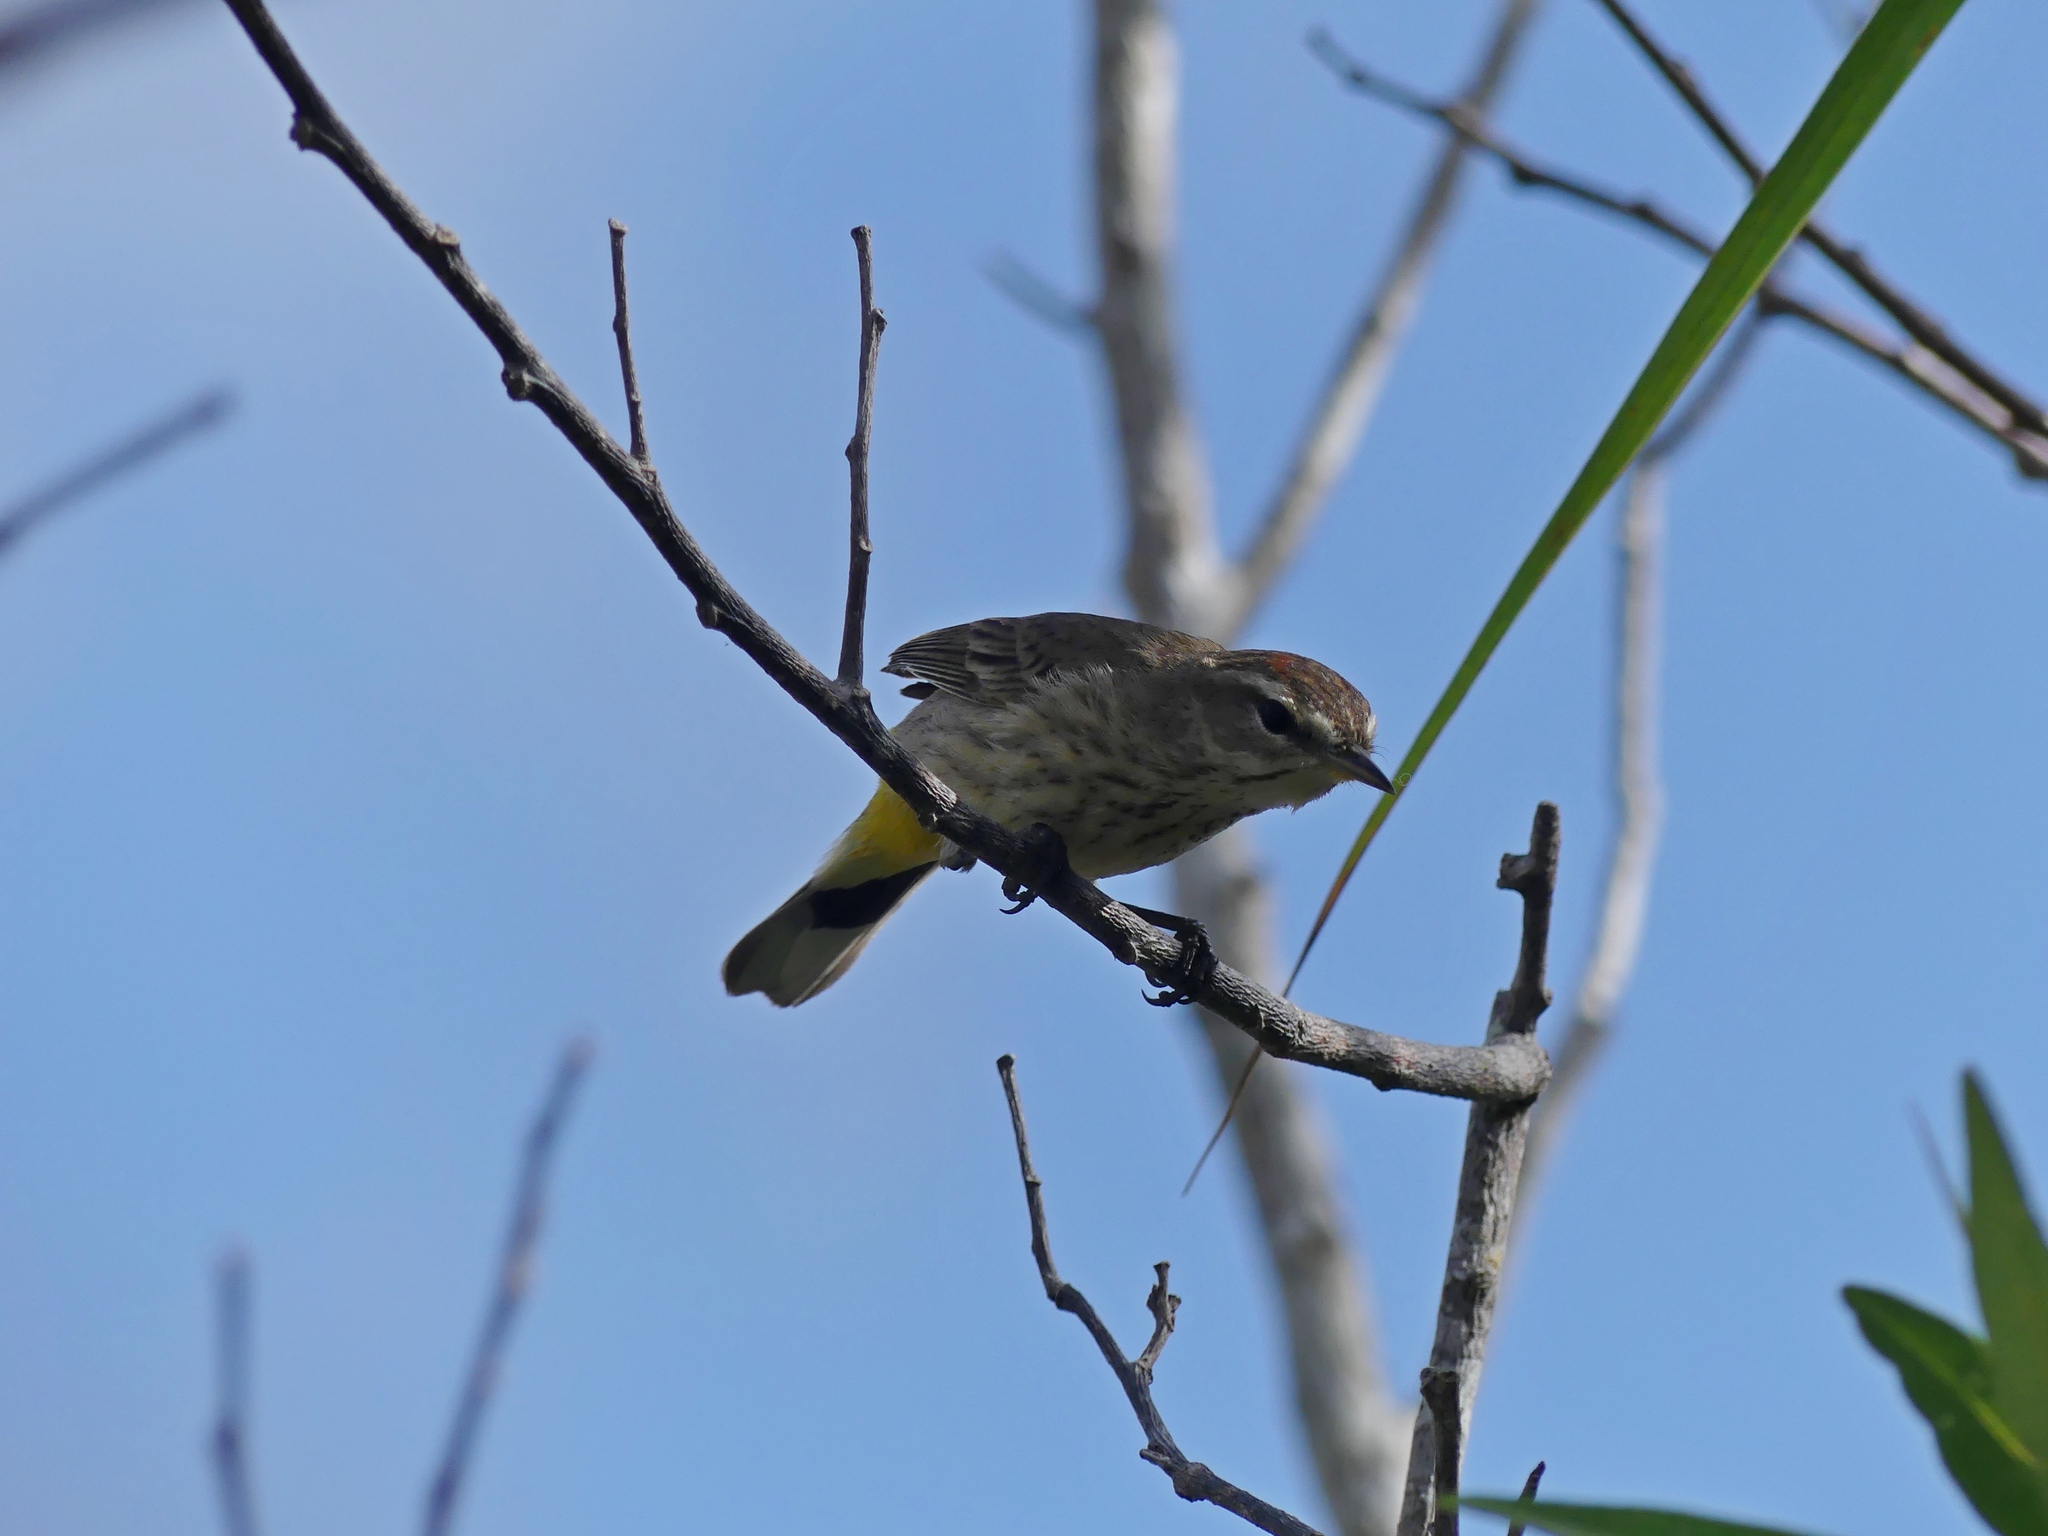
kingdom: Animalia
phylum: Chordata
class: Aves
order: Passeriformes
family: Parulidae
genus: Setophaga
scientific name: Setophaga palmarum
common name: Palm warbler
